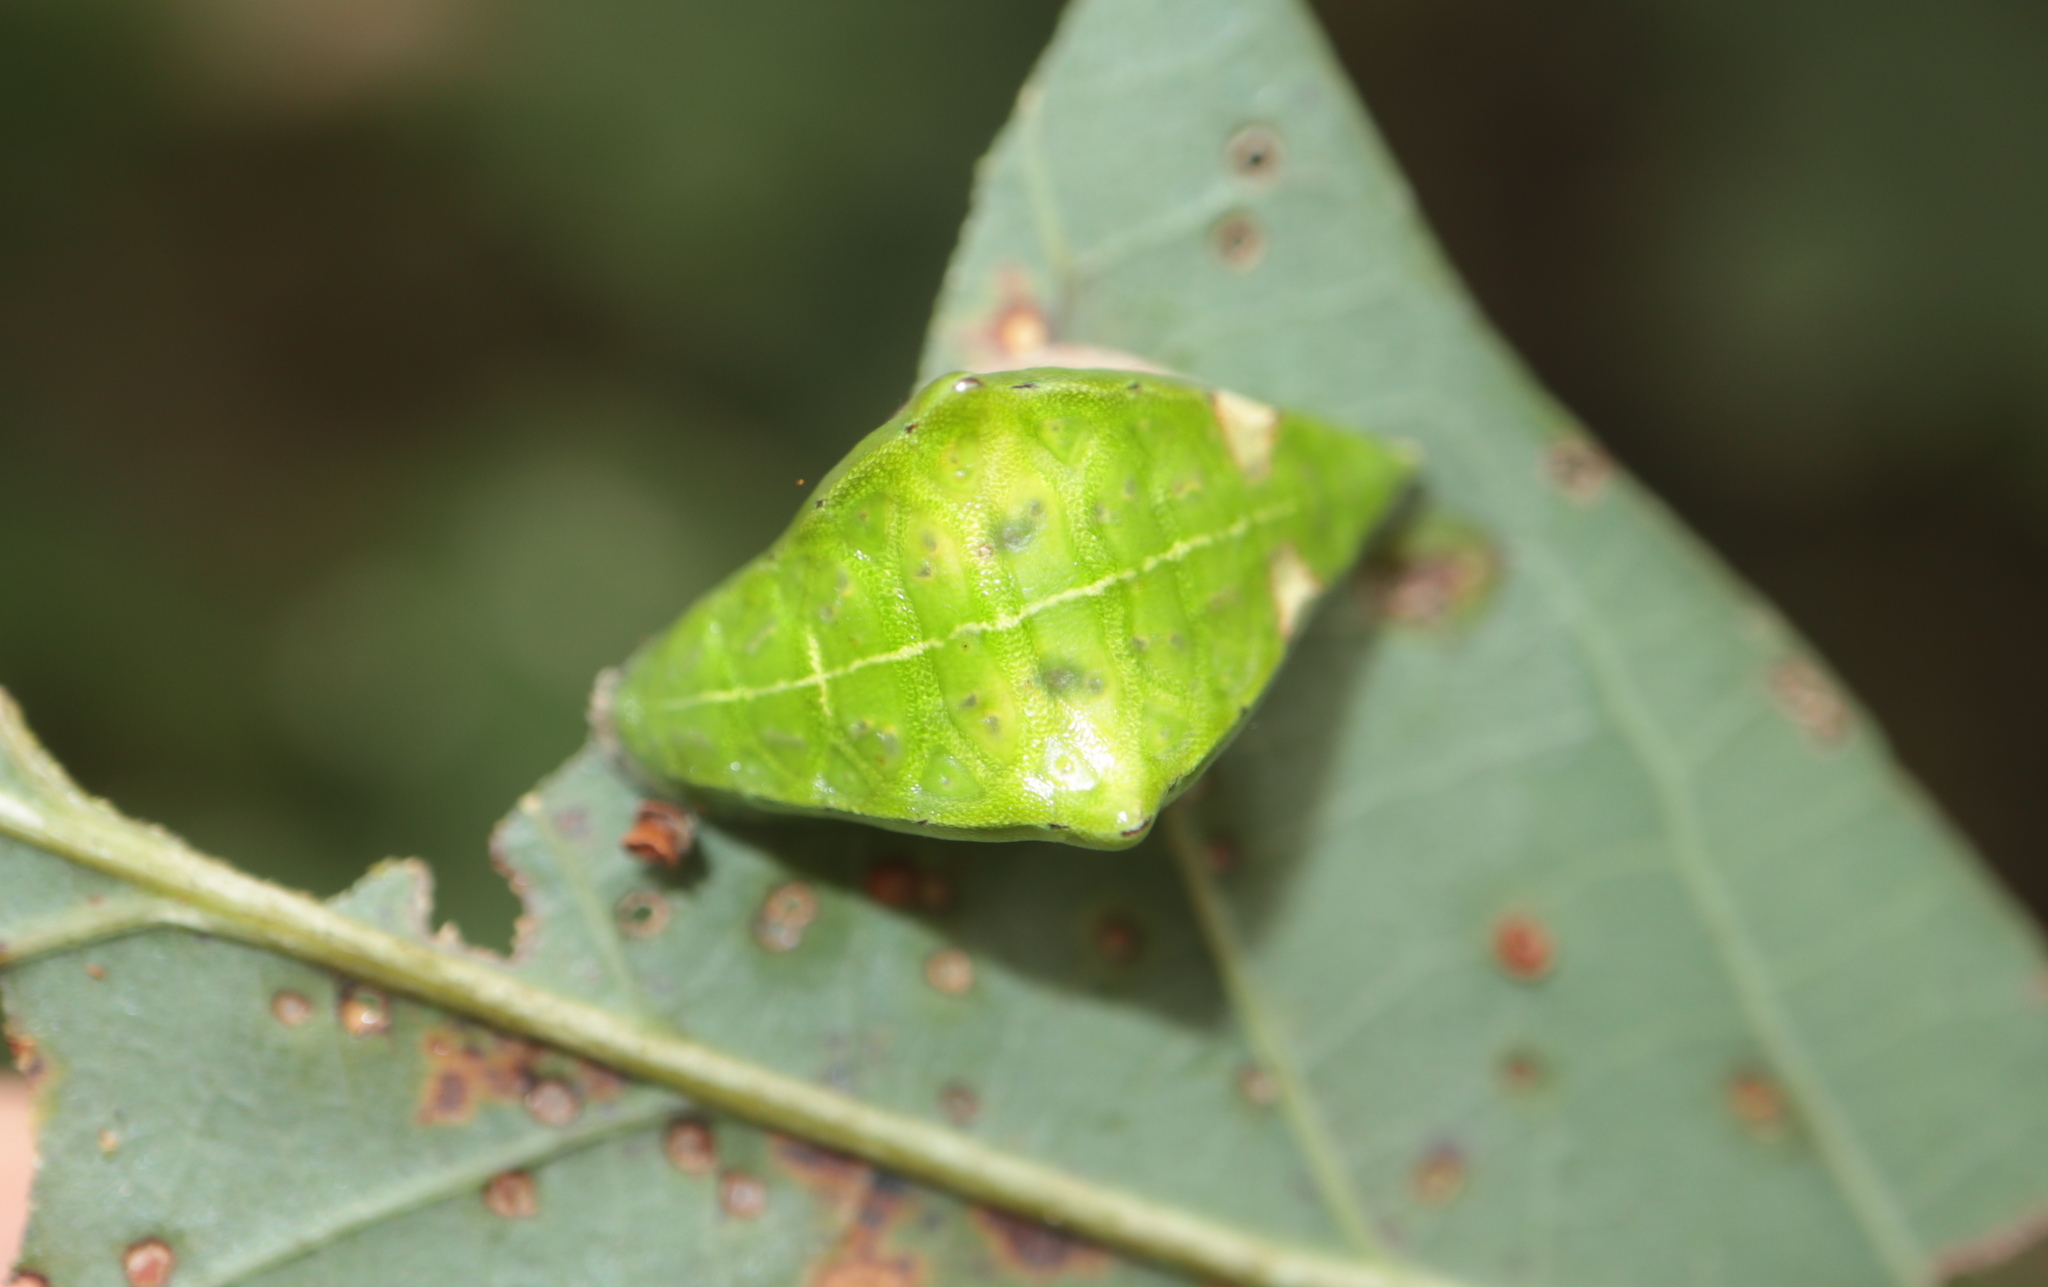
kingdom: Animalia
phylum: Arthropoda
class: Insecta
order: Lepidoptera
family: Limacodidae
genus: Prolimacodes
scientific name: Prolimacodes badia
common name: Skiff moth
